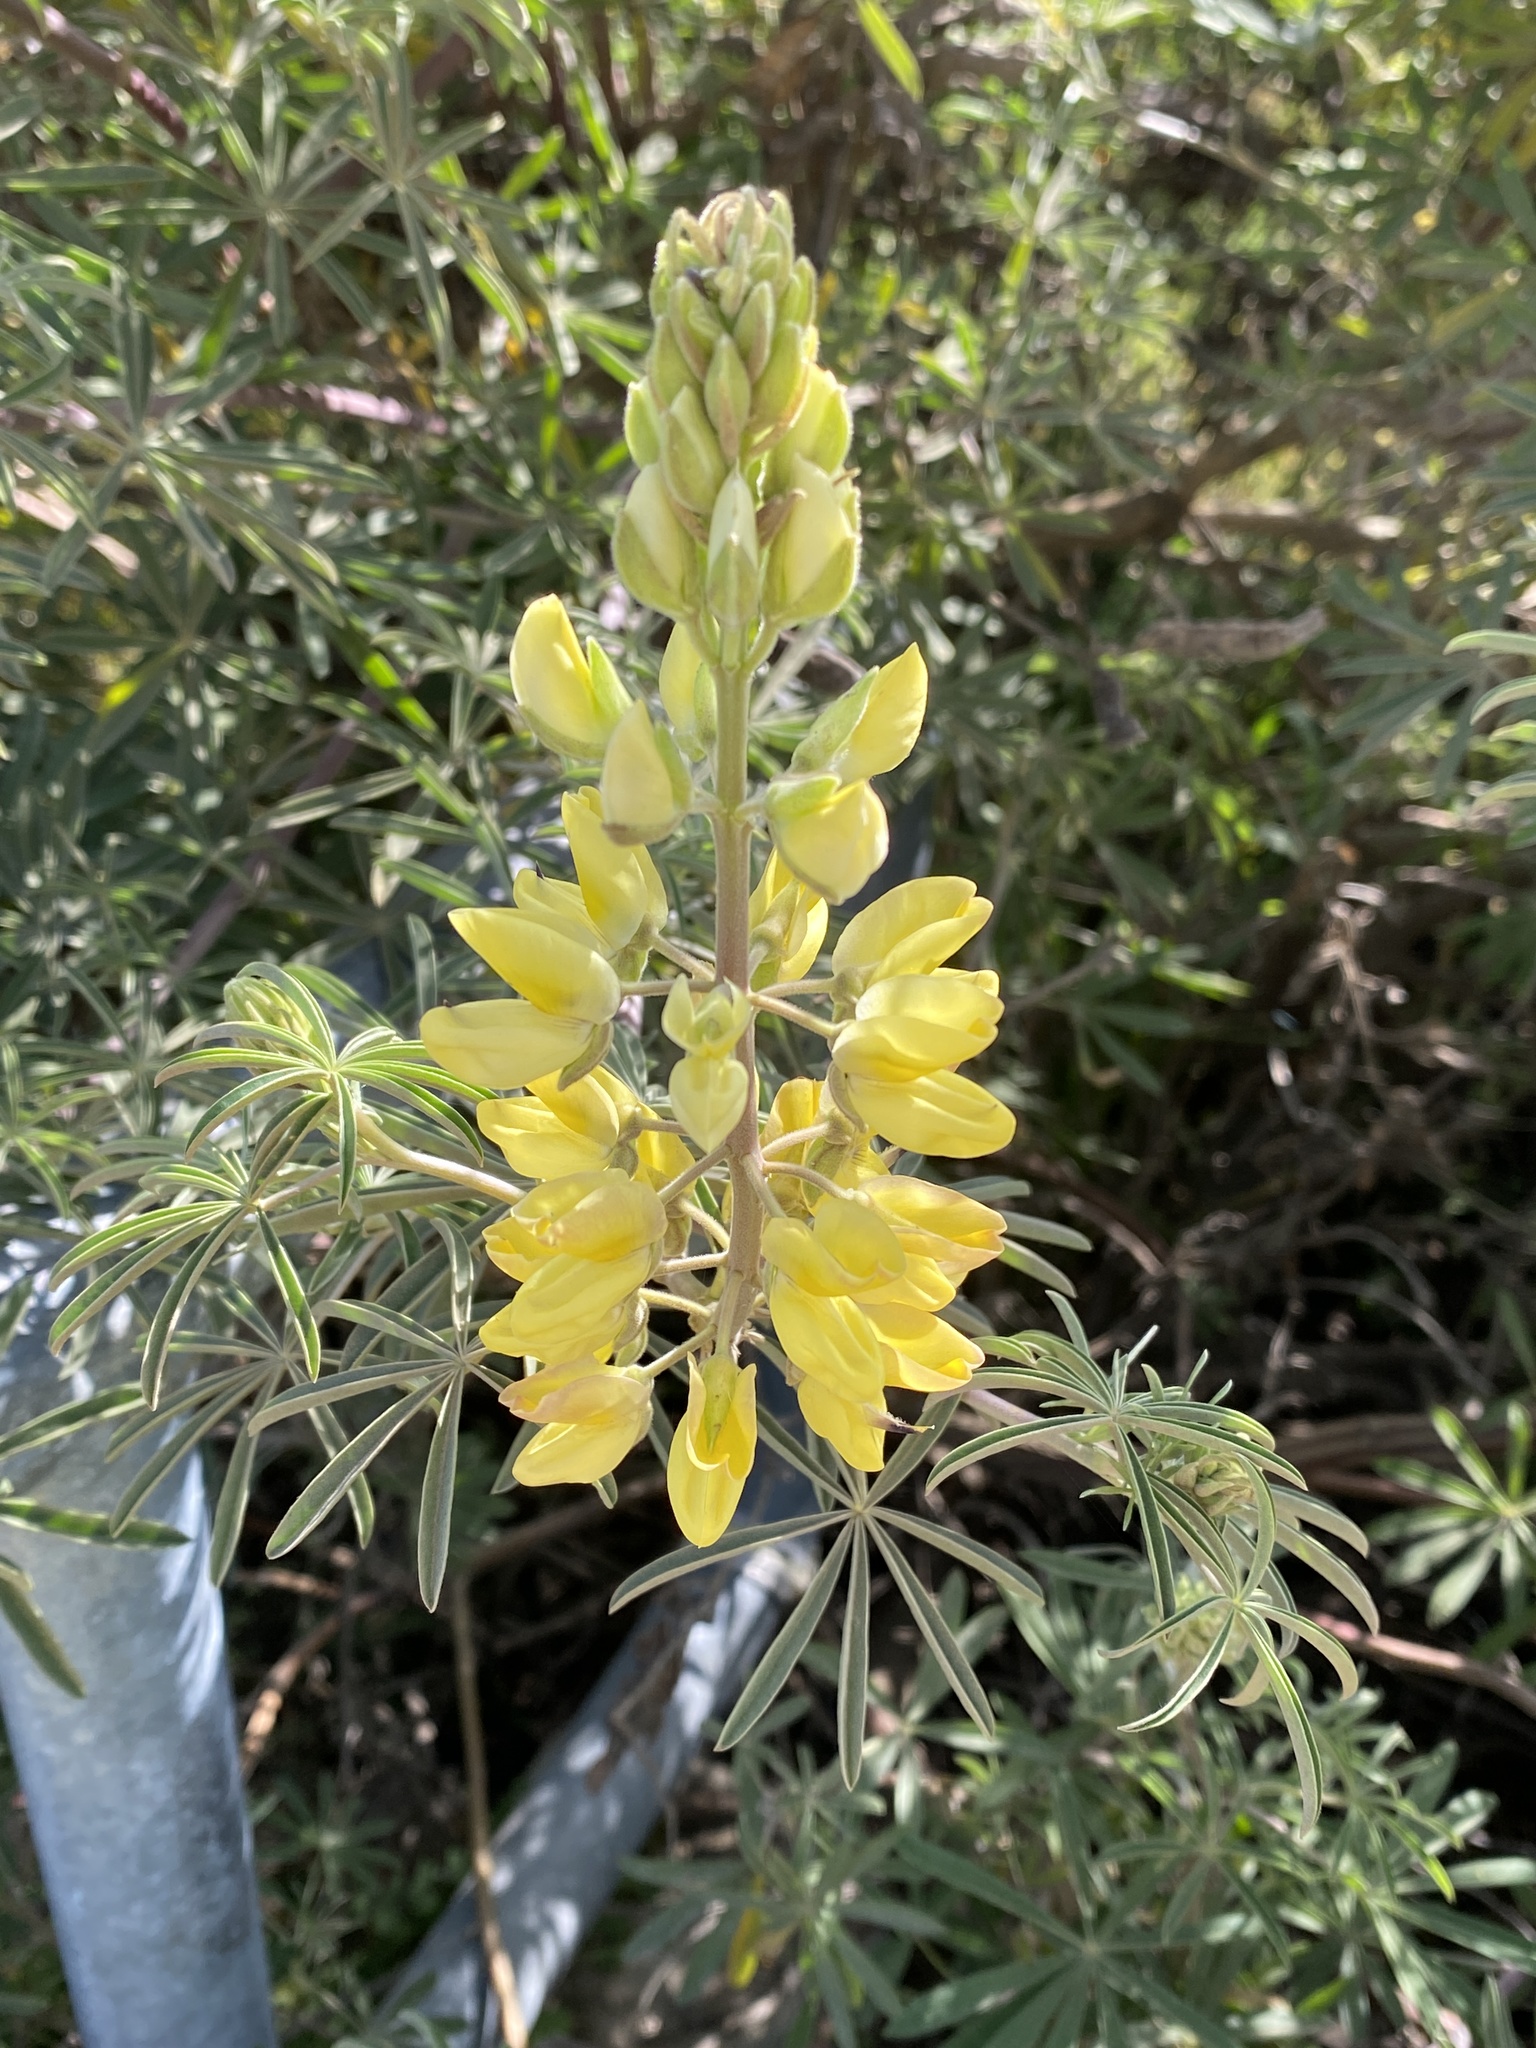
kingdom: Plantae
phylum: Tracheophyta
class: Magnoliopsida
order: Fabales
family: Fabaceae
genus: Lupinus
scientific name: Lupinus arboreus
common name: Yellow bush lupine
